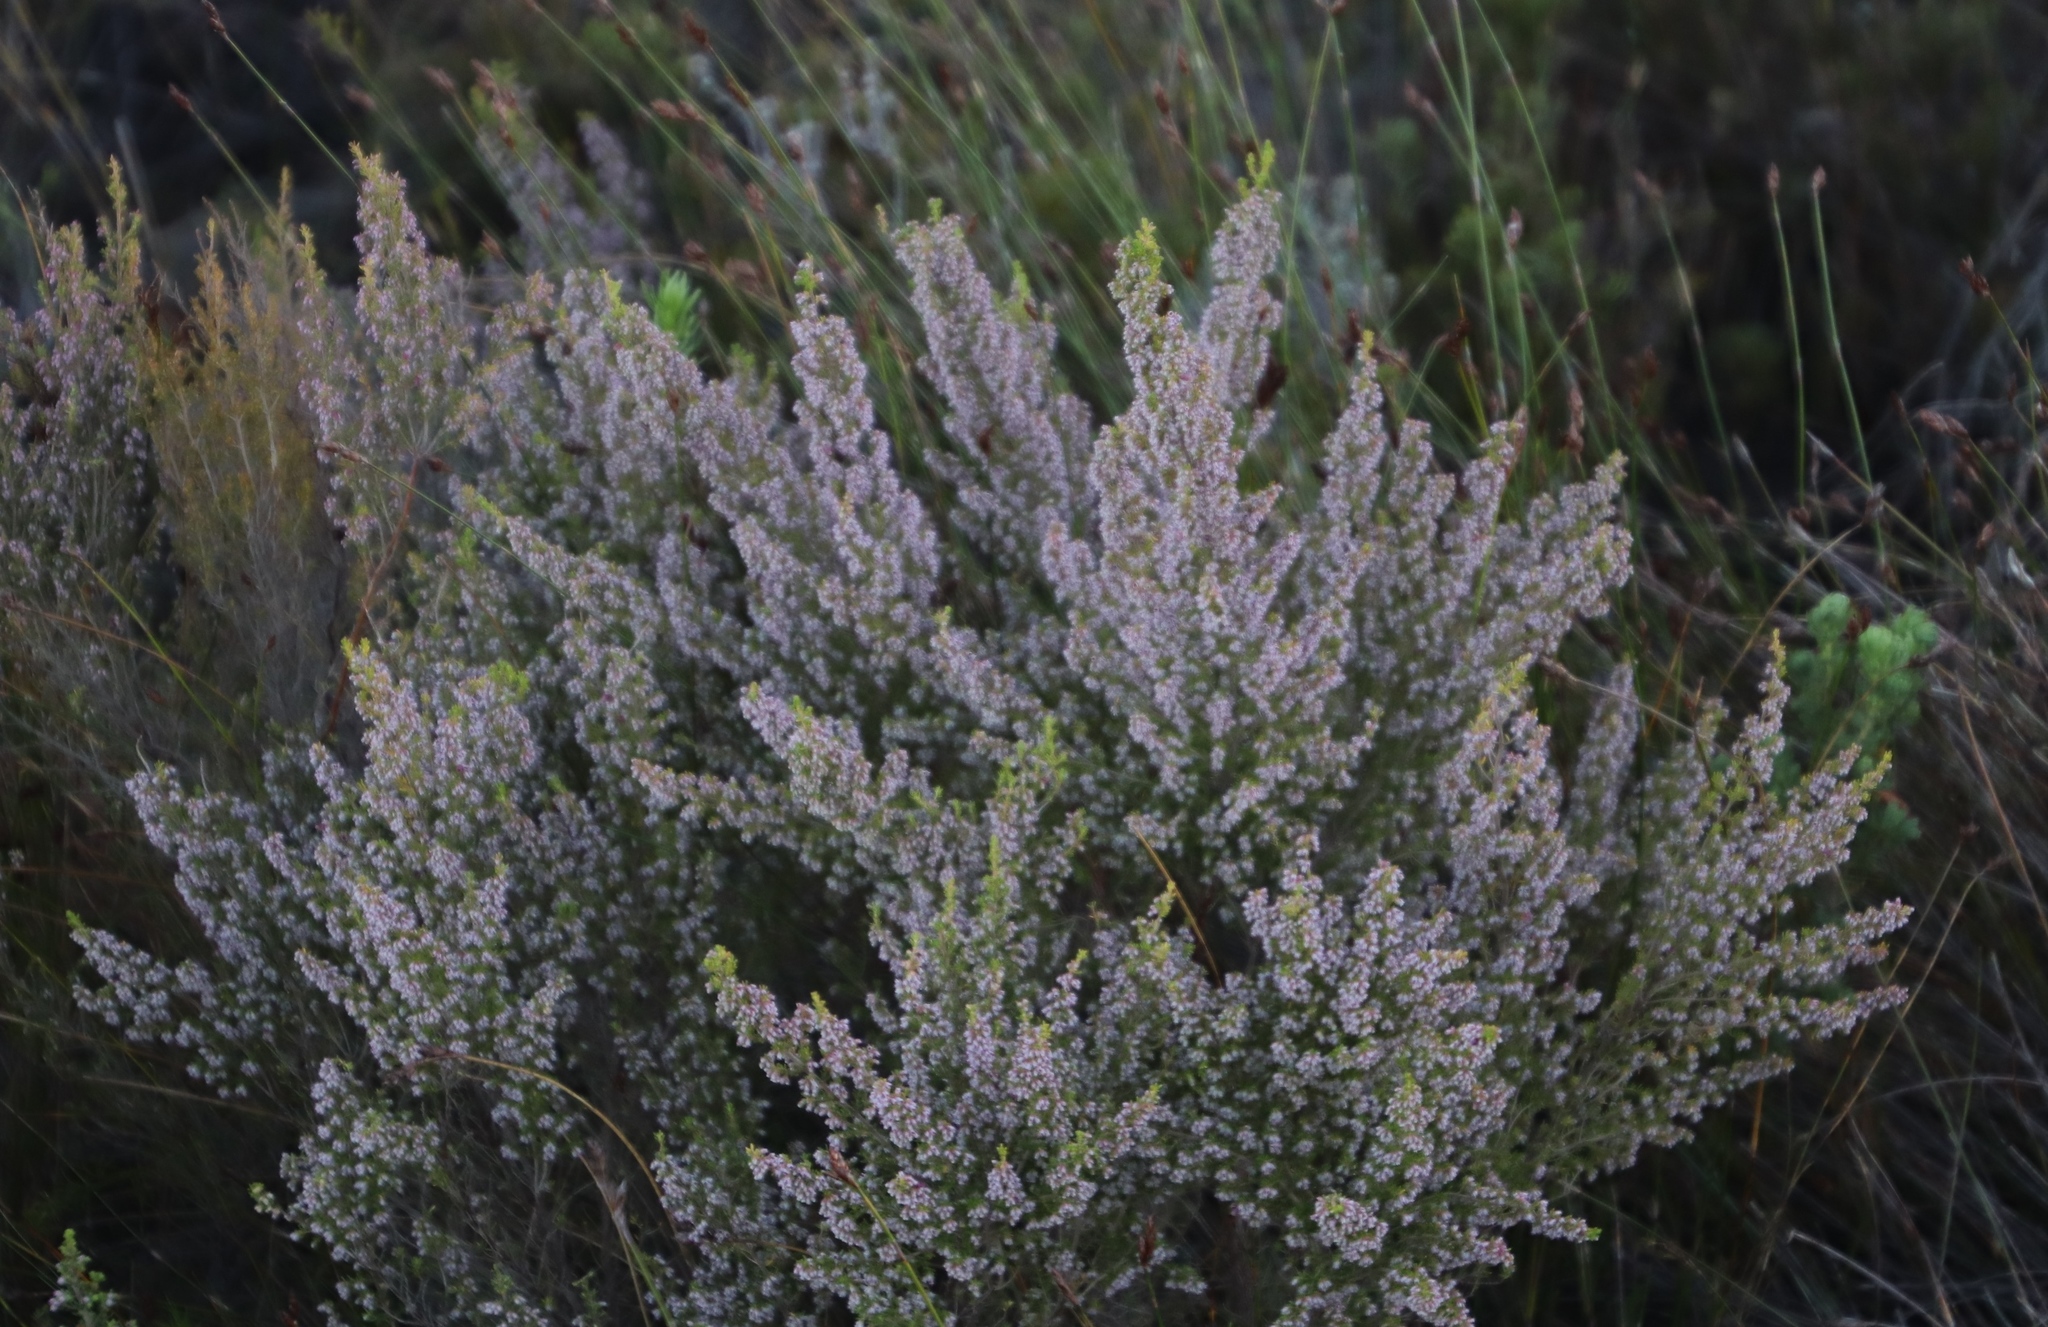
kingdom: Plantae
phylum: Tracheophyta
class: Magnoliopsida
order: Ericales
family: Ericaceae
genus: Erica
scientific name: Erica hispidula
